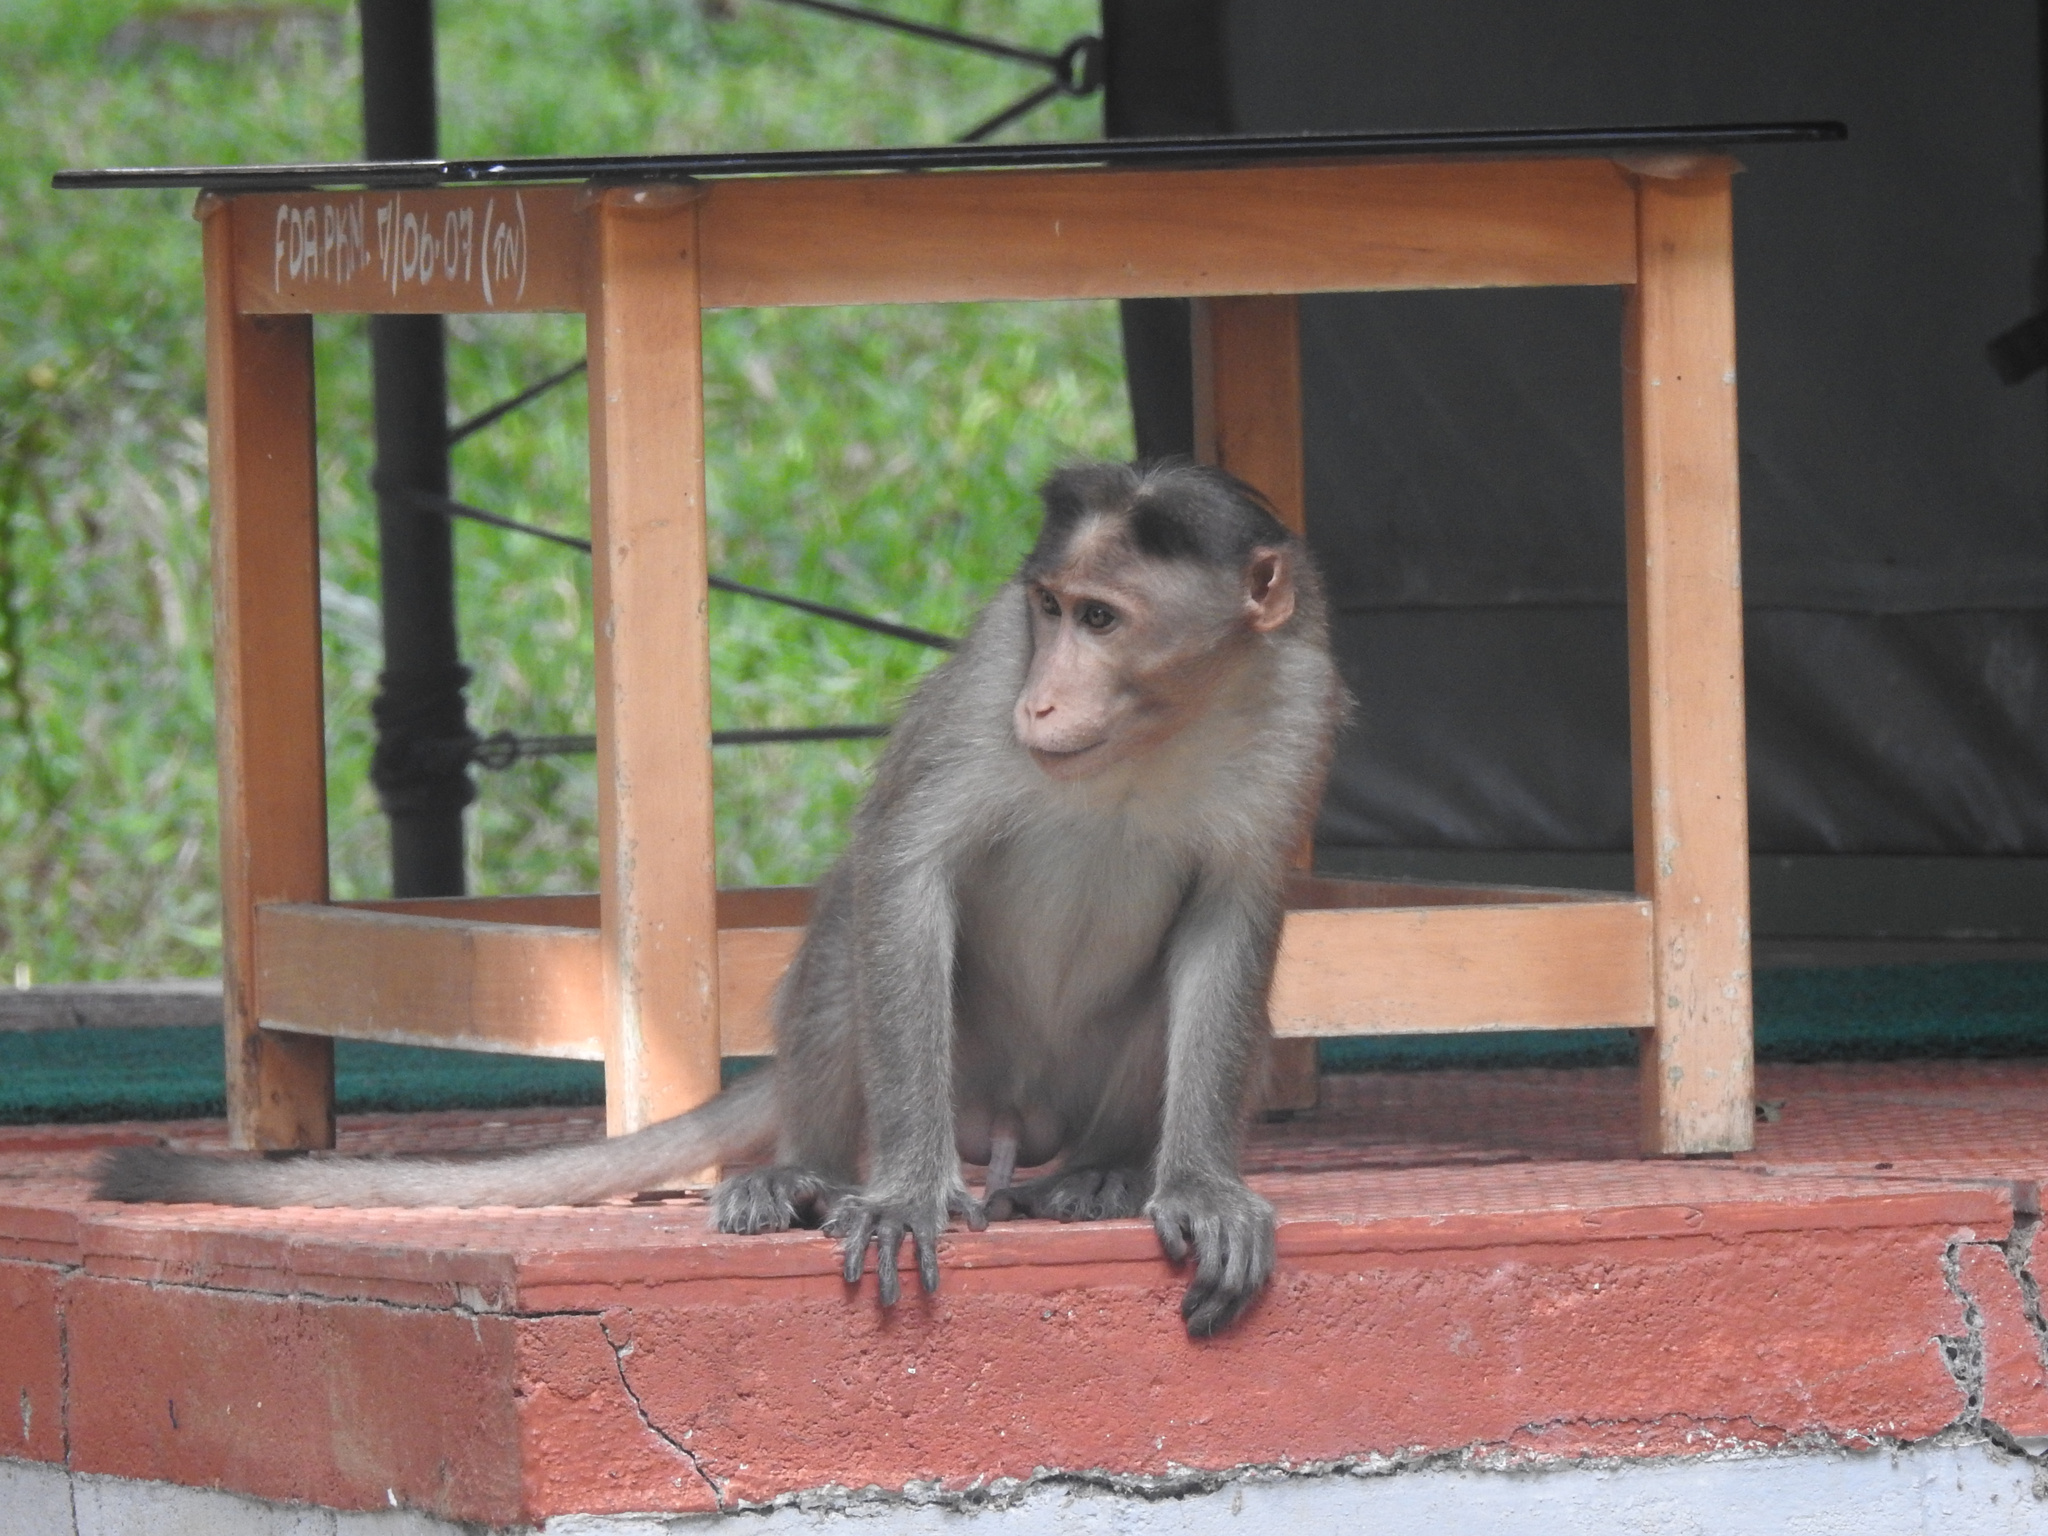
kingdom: Animalia
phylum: Chordata
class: Mammalia
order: Primates
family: Cercopithecidae
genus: Macaca
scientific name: Macaca radiata
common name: Bonnet macaque
